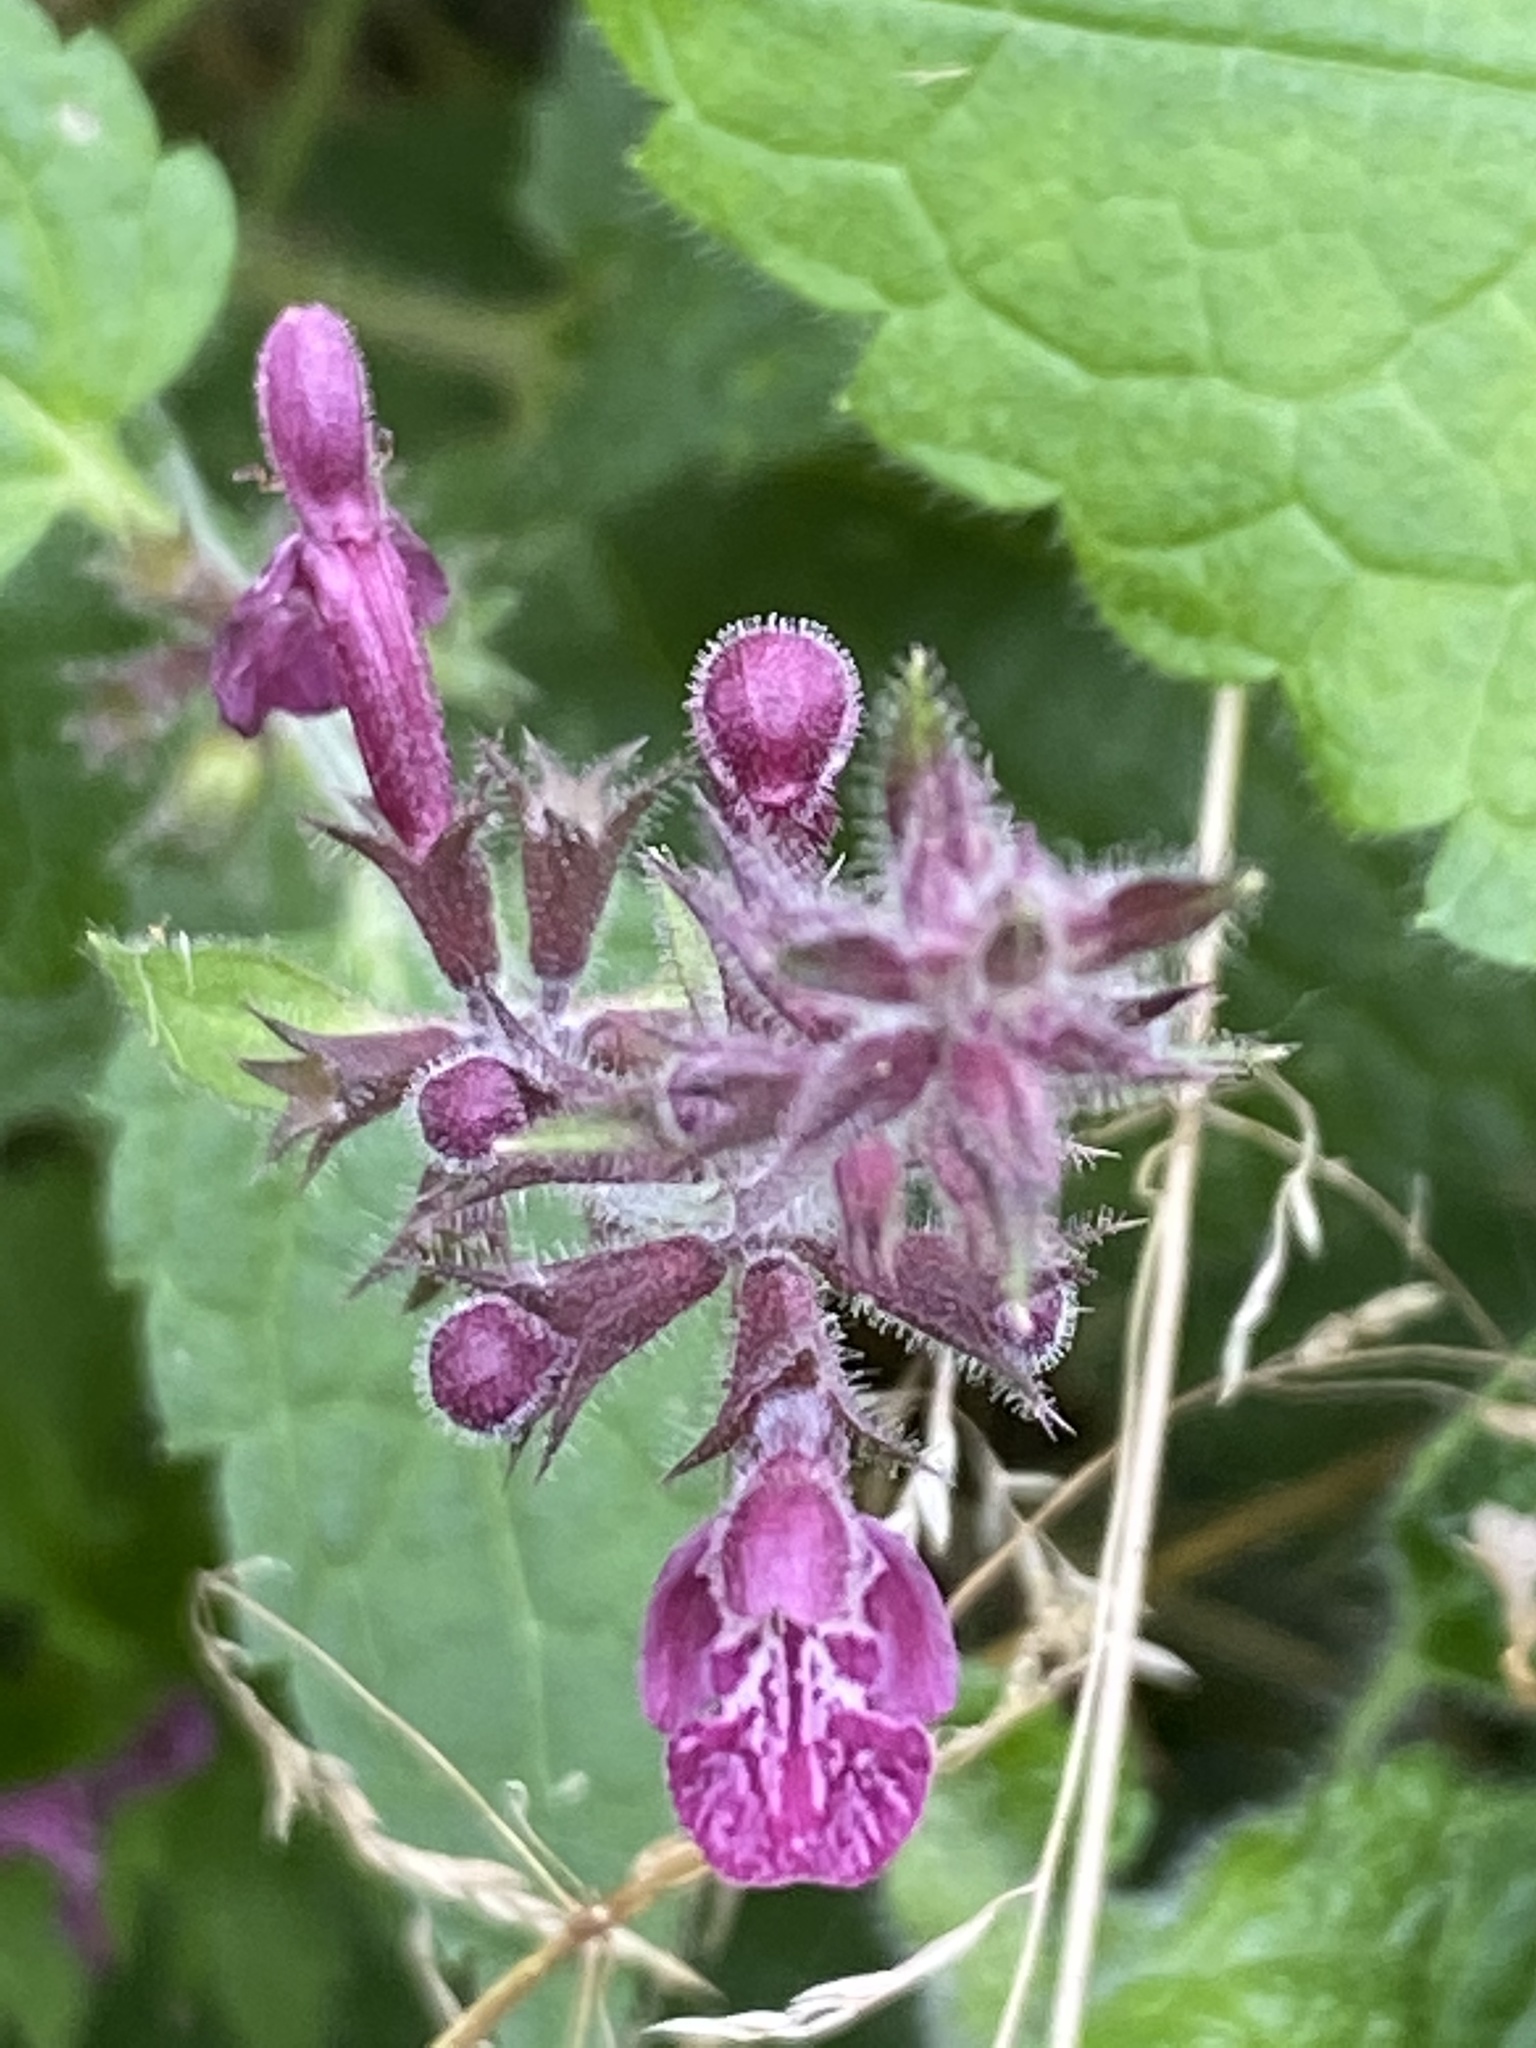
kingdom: Plantae
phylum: Tracheophyta
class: Magnoliopsida
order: Lamiales
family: Lamiaceae
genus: Stachys
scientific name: Stachys sylvatica
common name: Hedge woundwort
